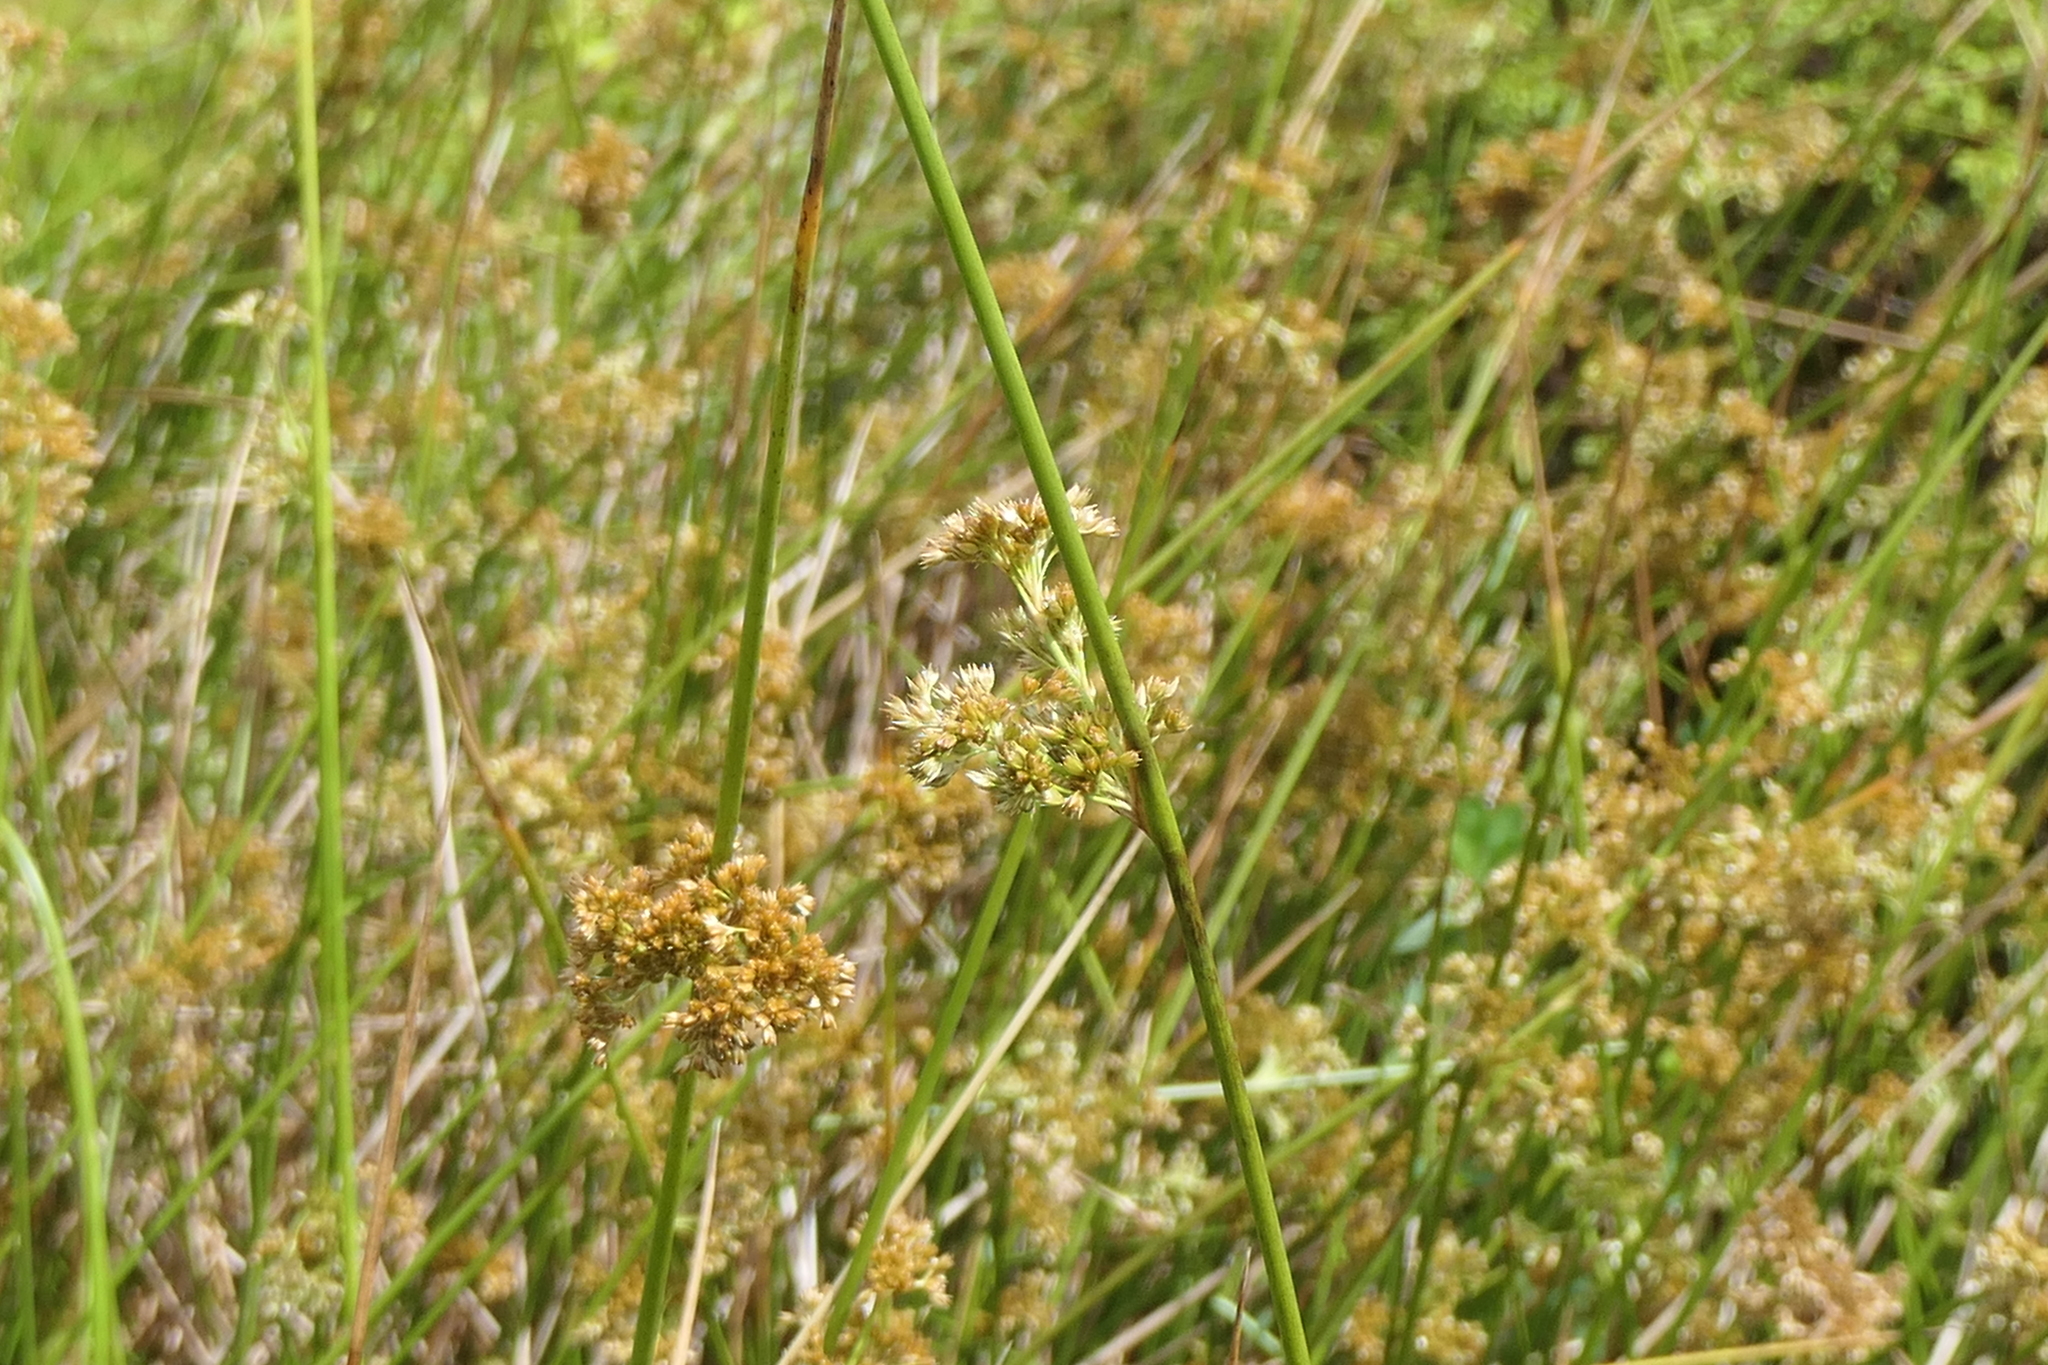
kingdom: Plantae
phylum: Tracheophyta
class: Liliopsida
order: Poales
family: Juncaceae
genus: Juncus
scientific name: Juncus effusus
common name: Soft rush
